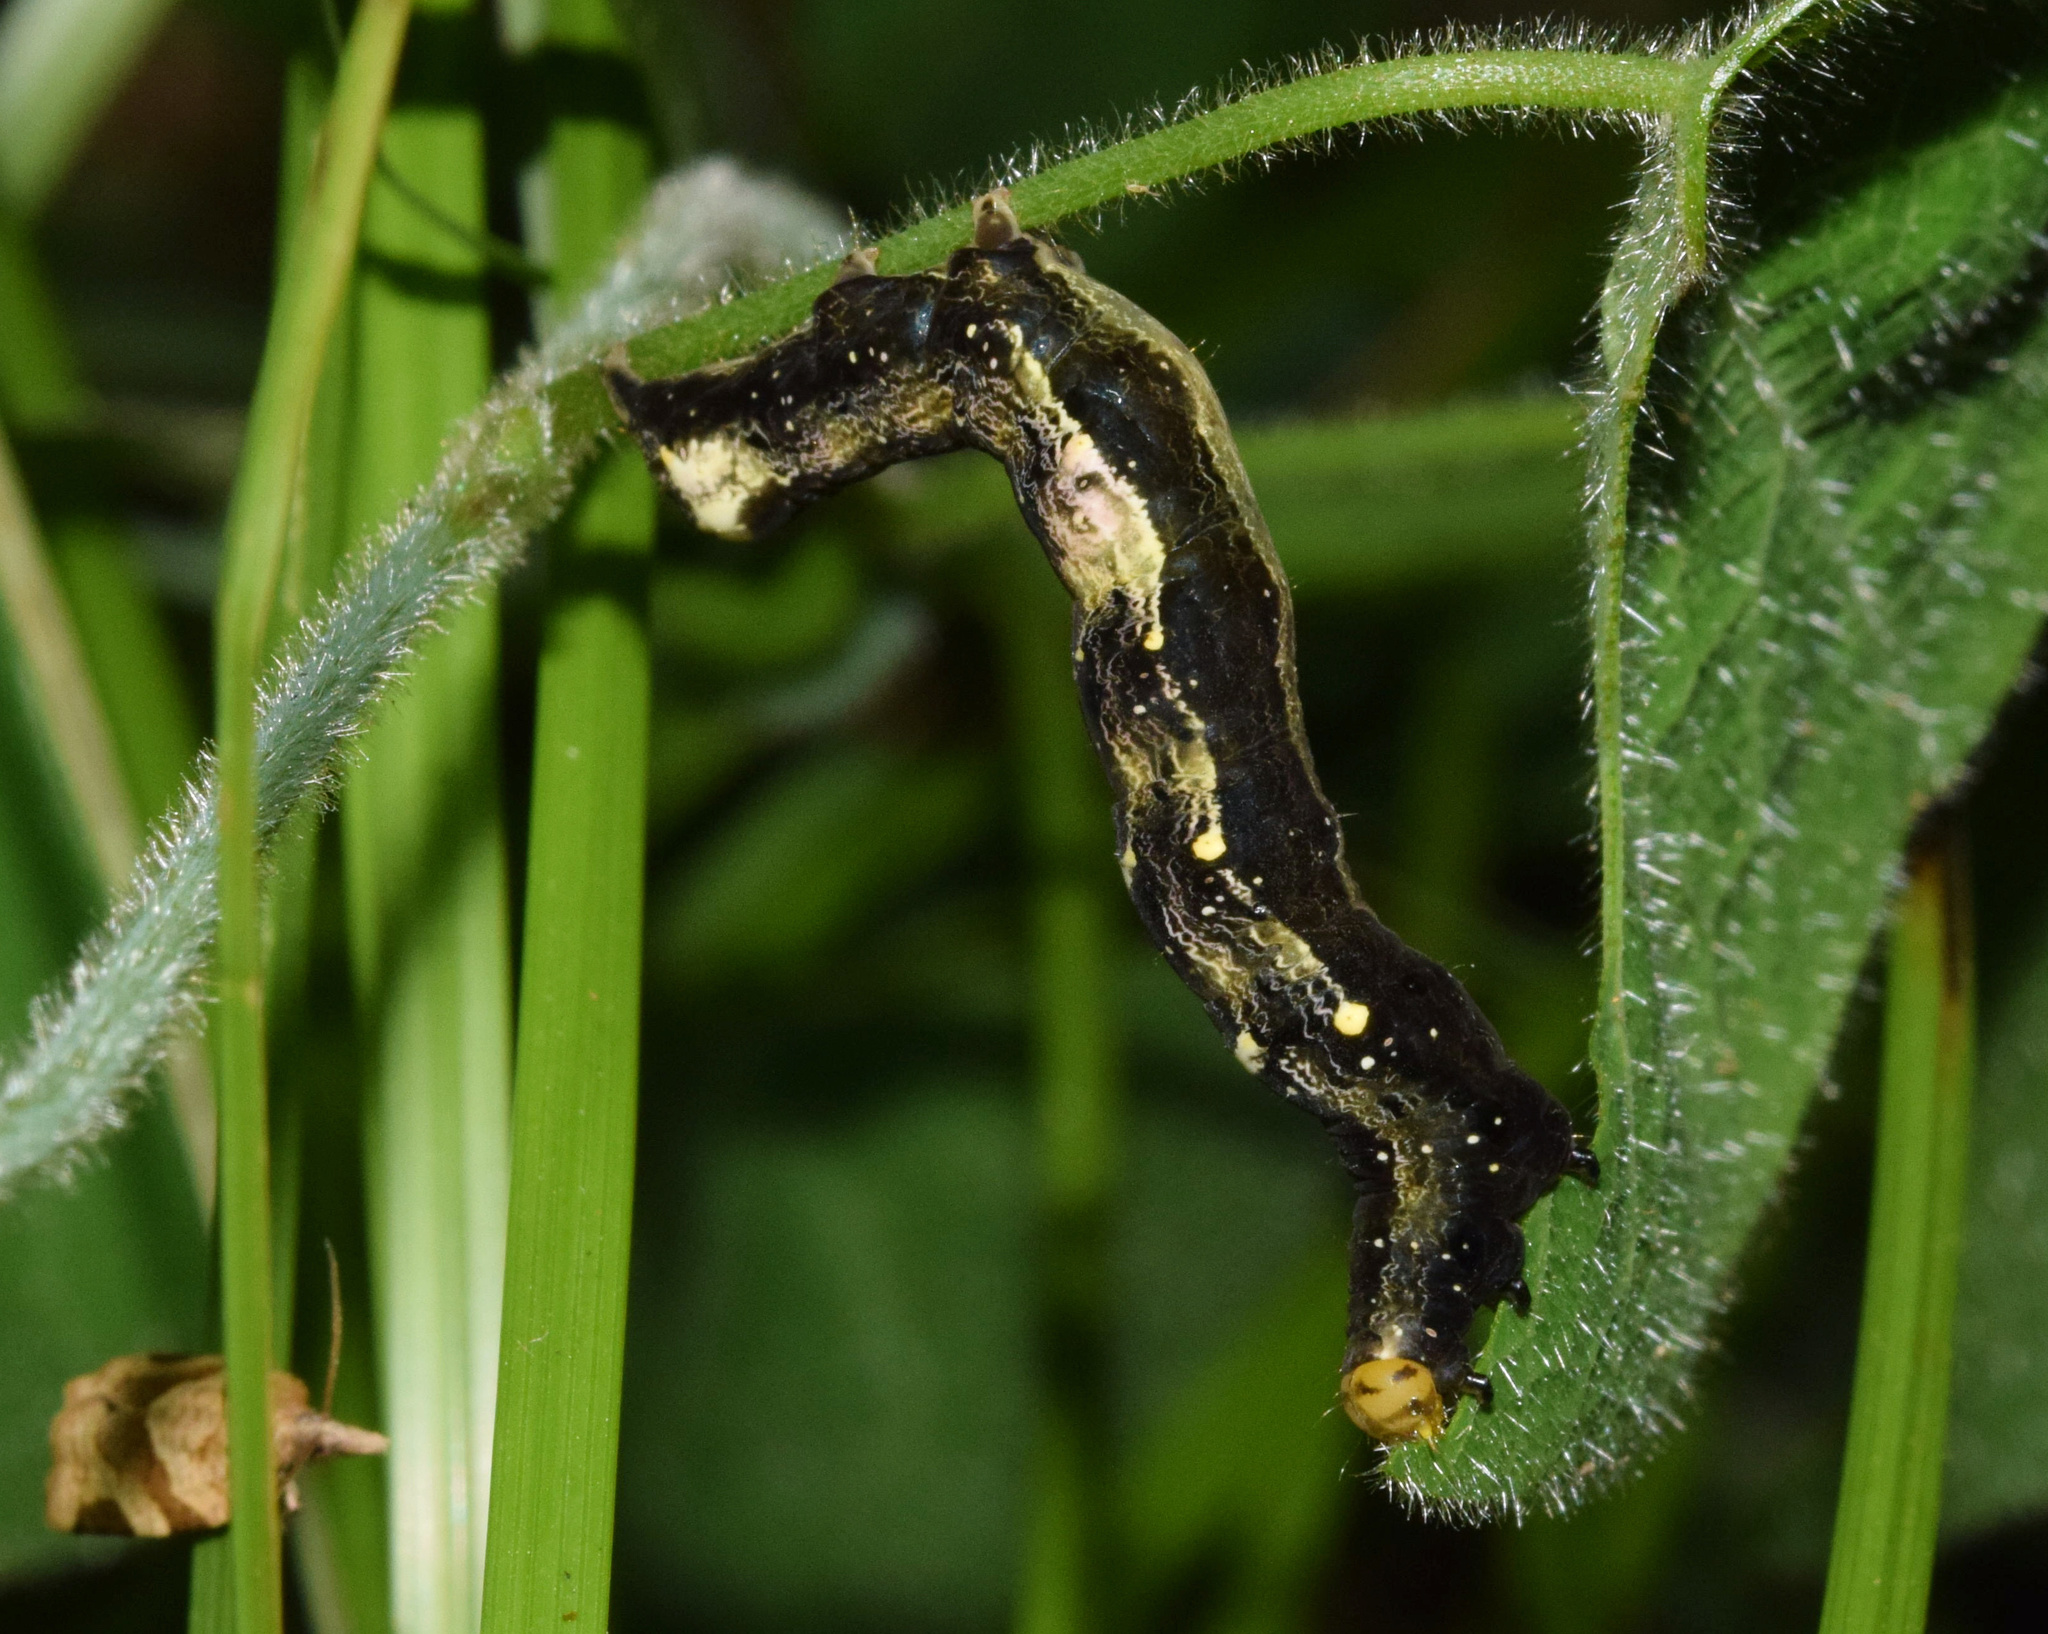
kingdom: Animalia
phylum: Arthropoda
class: Insecta
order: Lepidoptera
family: Erebidae
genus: Plusiodonta
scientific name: Plusiodonta natalensis
